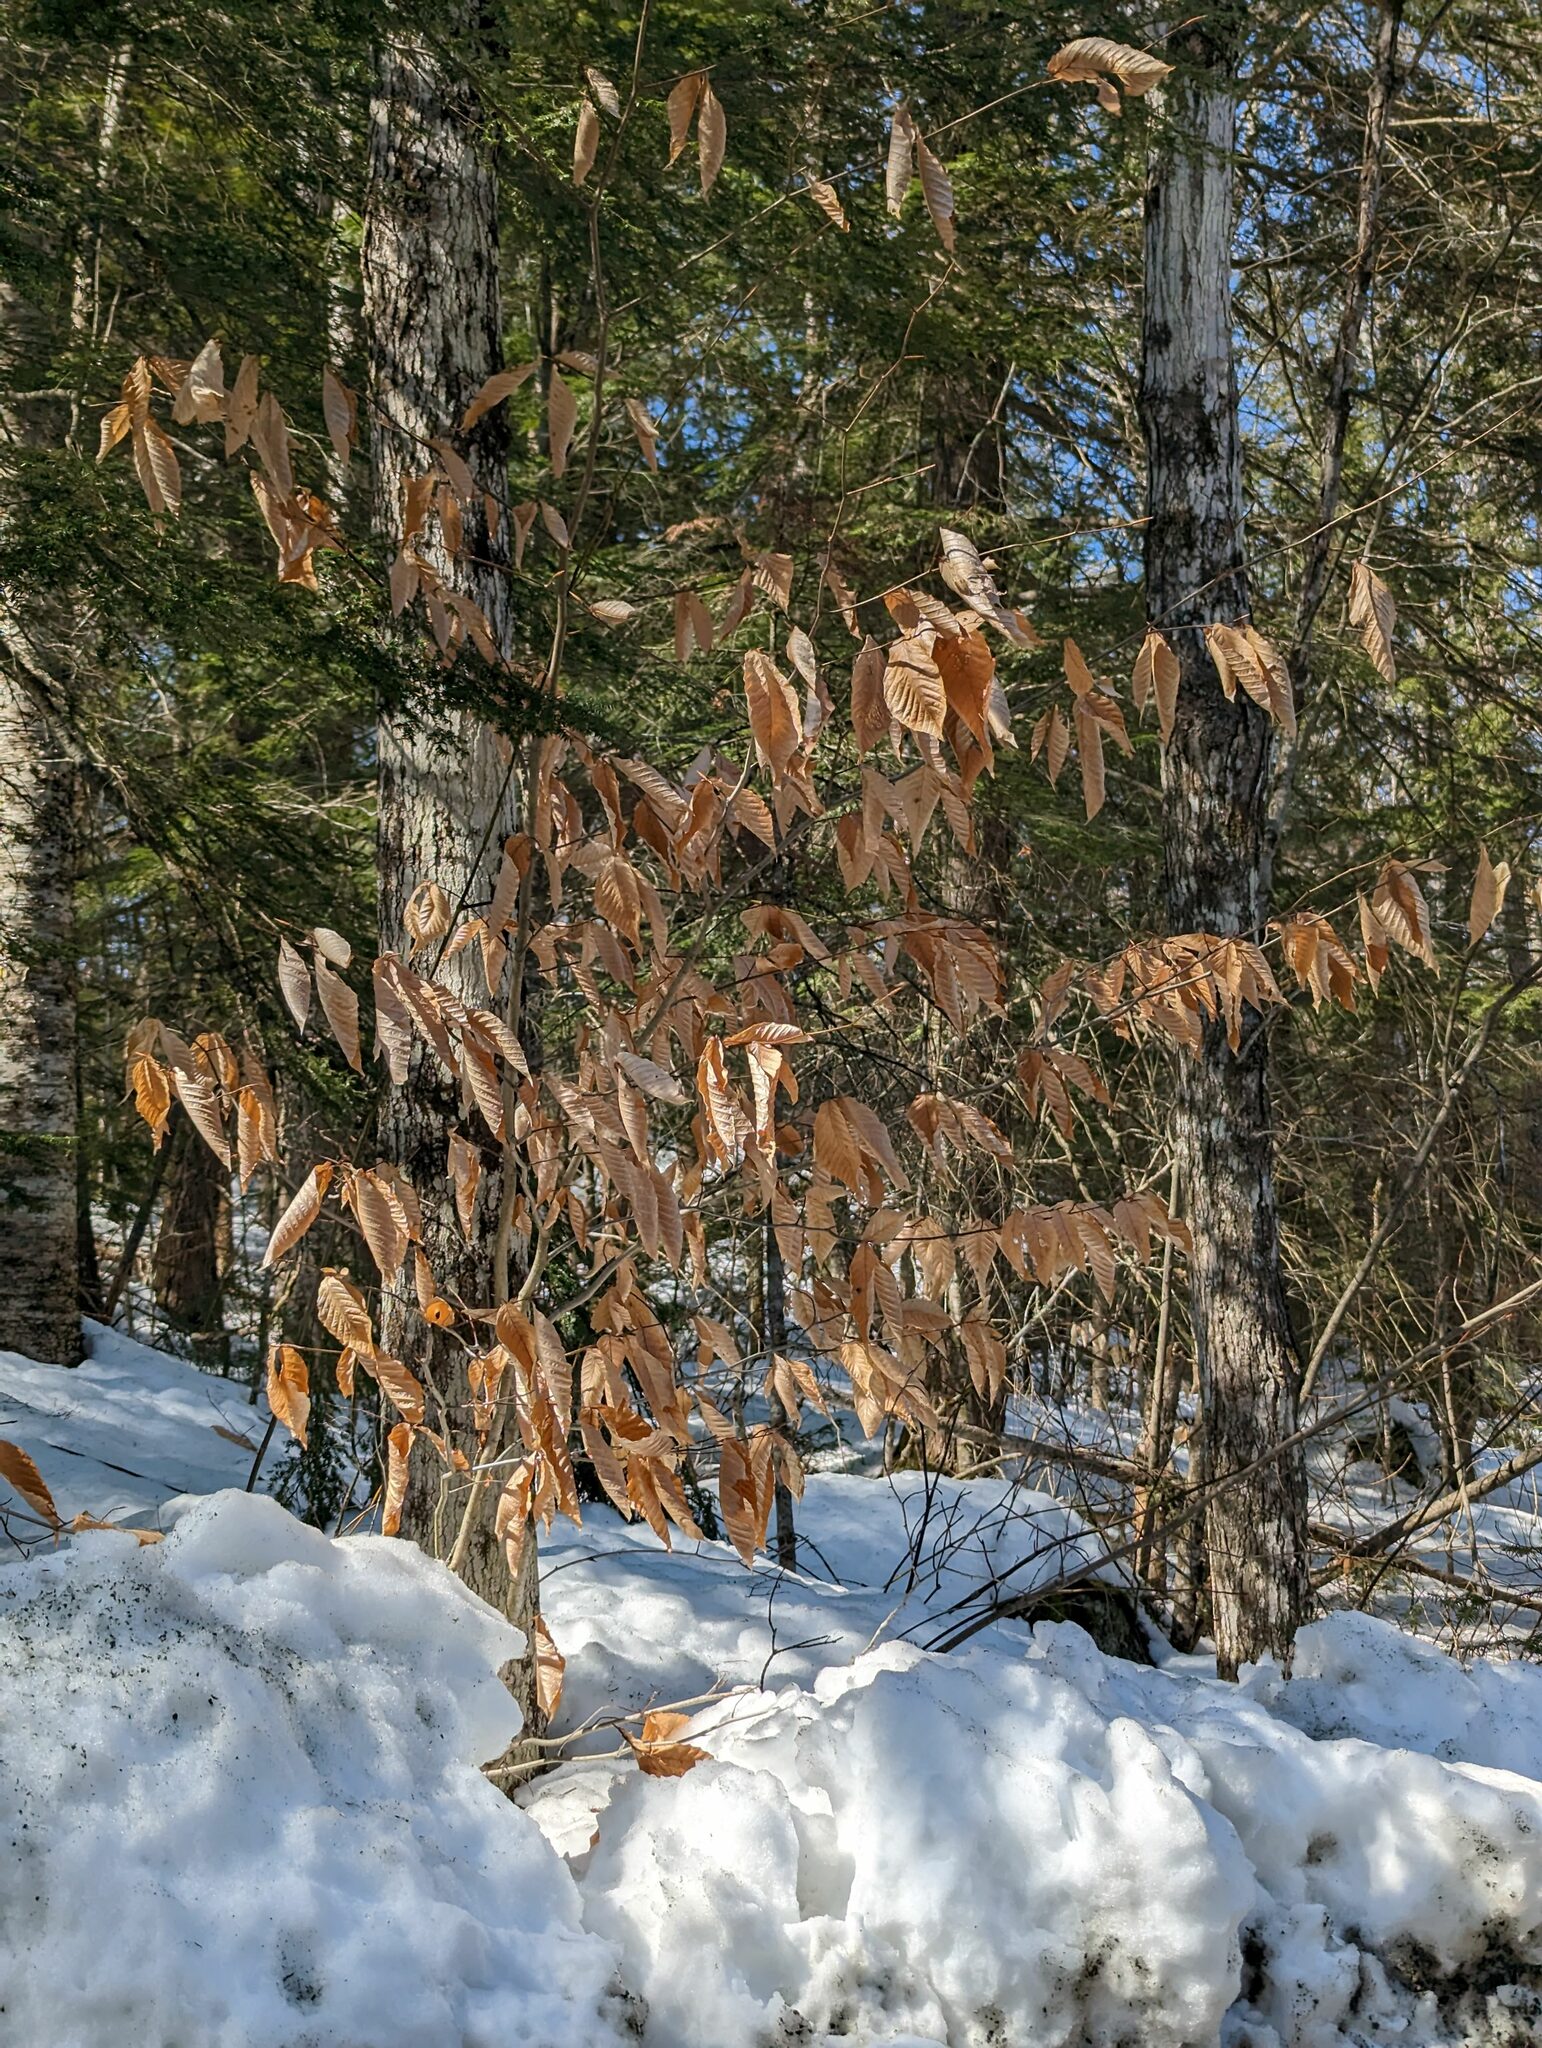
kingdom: Plantae
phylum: Tracheophyta
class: Magnoliopsida
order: Fagales
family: Fagaceae
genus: Fagus
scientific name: Fagus grandifolia
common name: American beech
